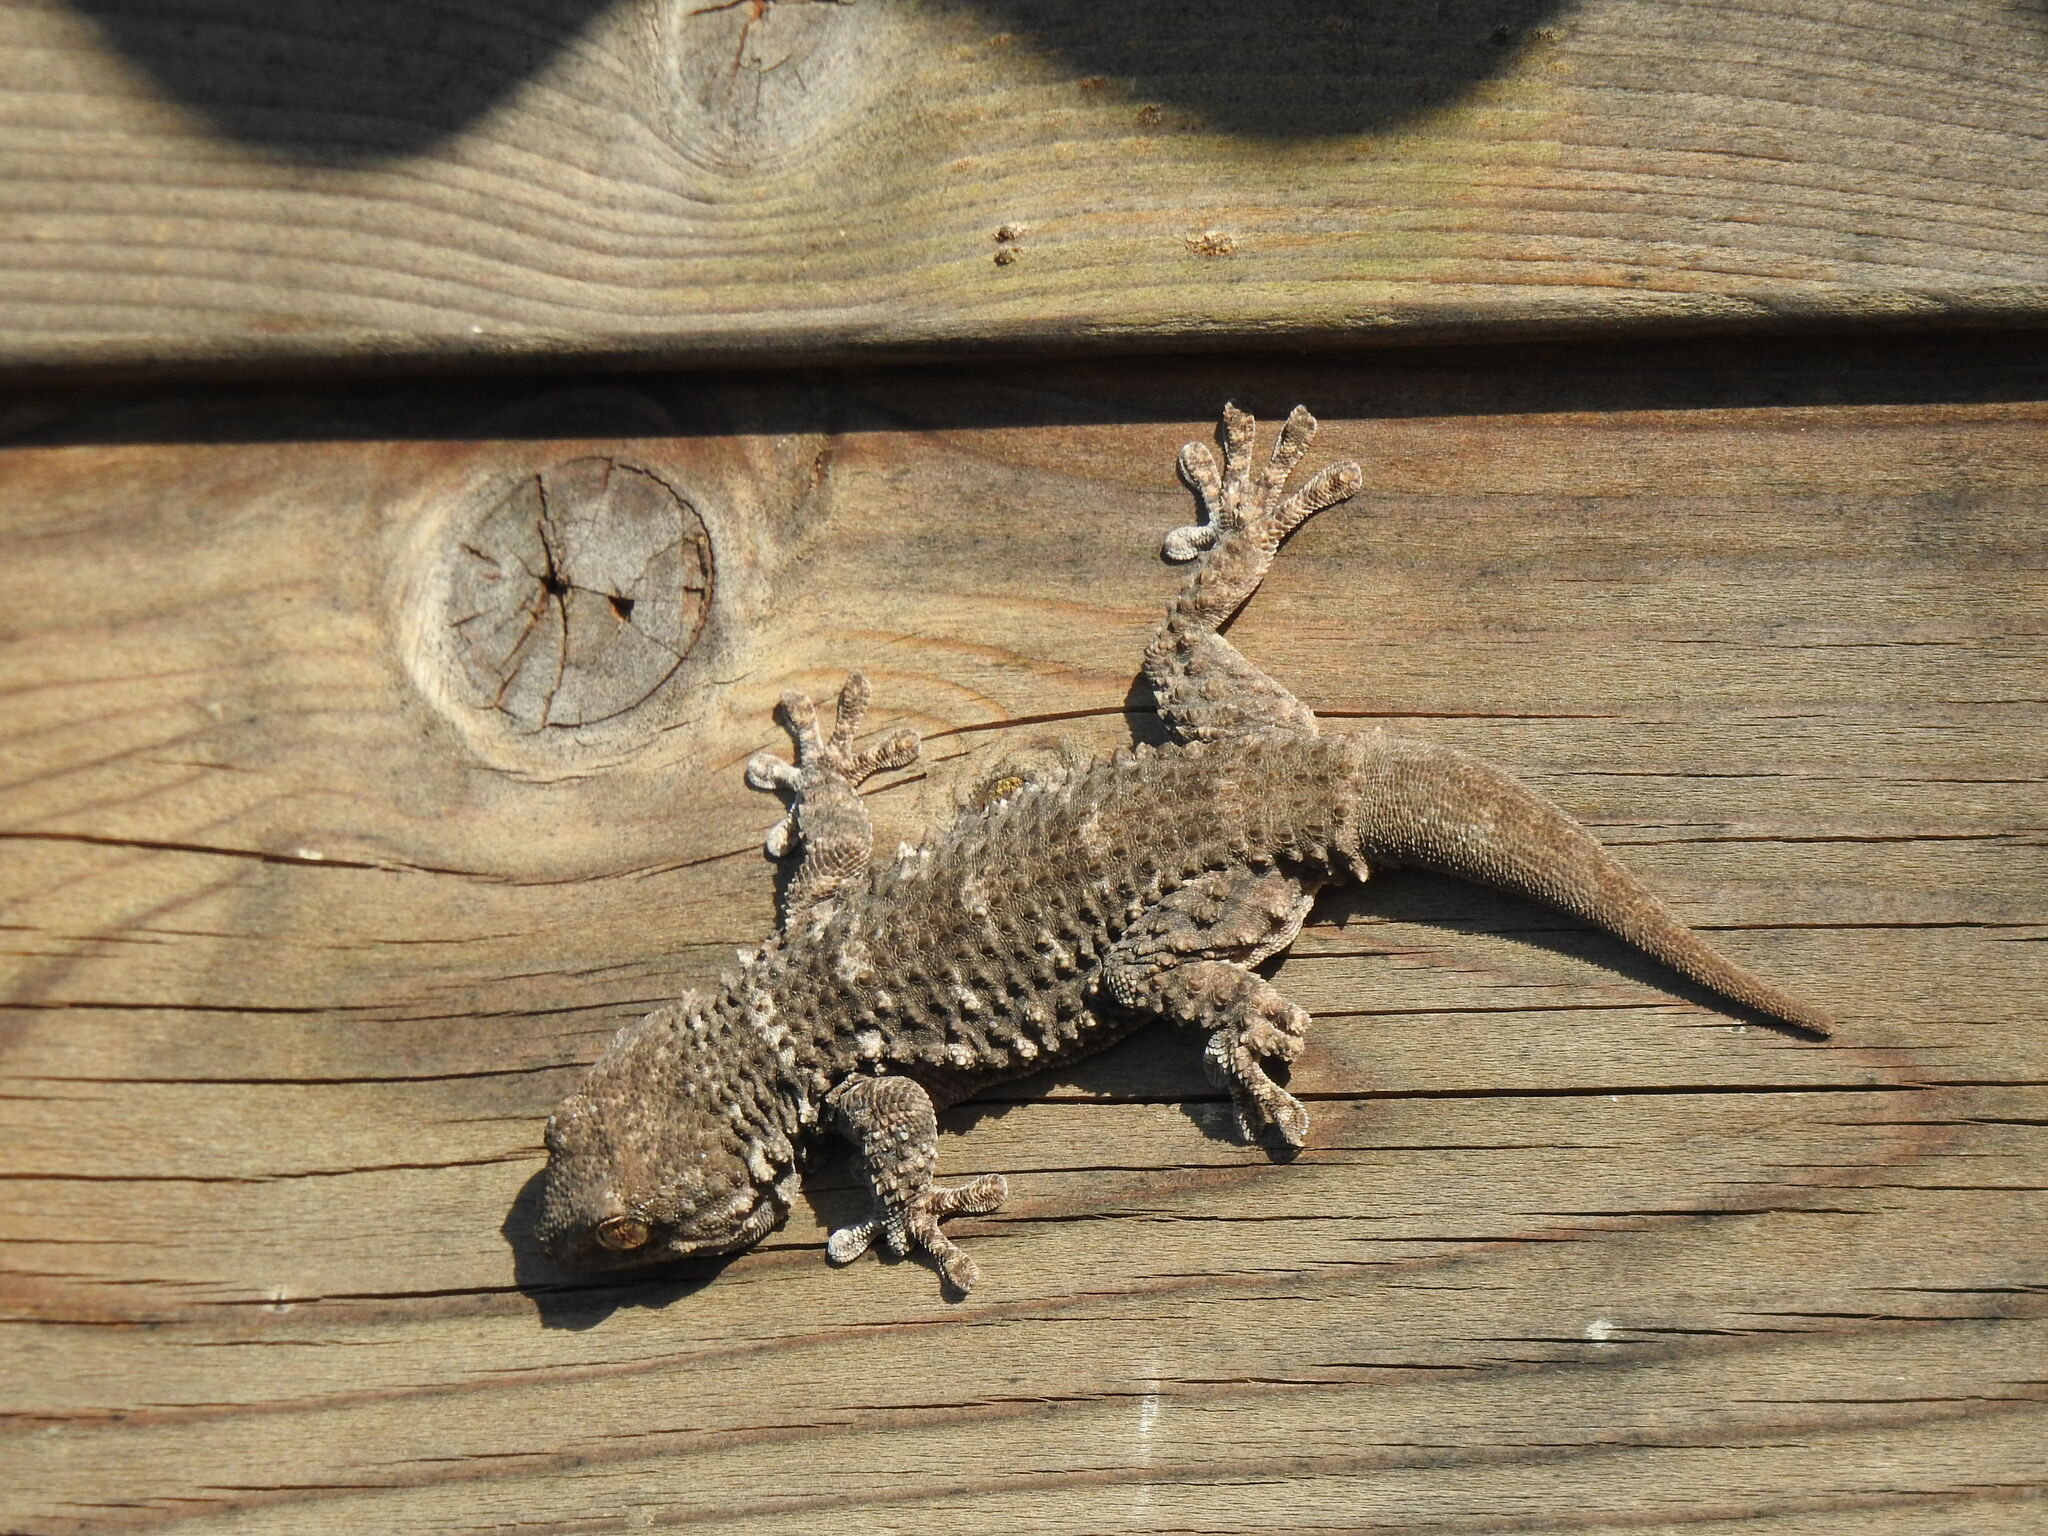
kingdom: Animalia
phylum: Chordata
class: Squamata
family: Phyllodactylidae
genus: Tarentola
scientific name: Tarentola mauritanica
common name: Moorish gecko
